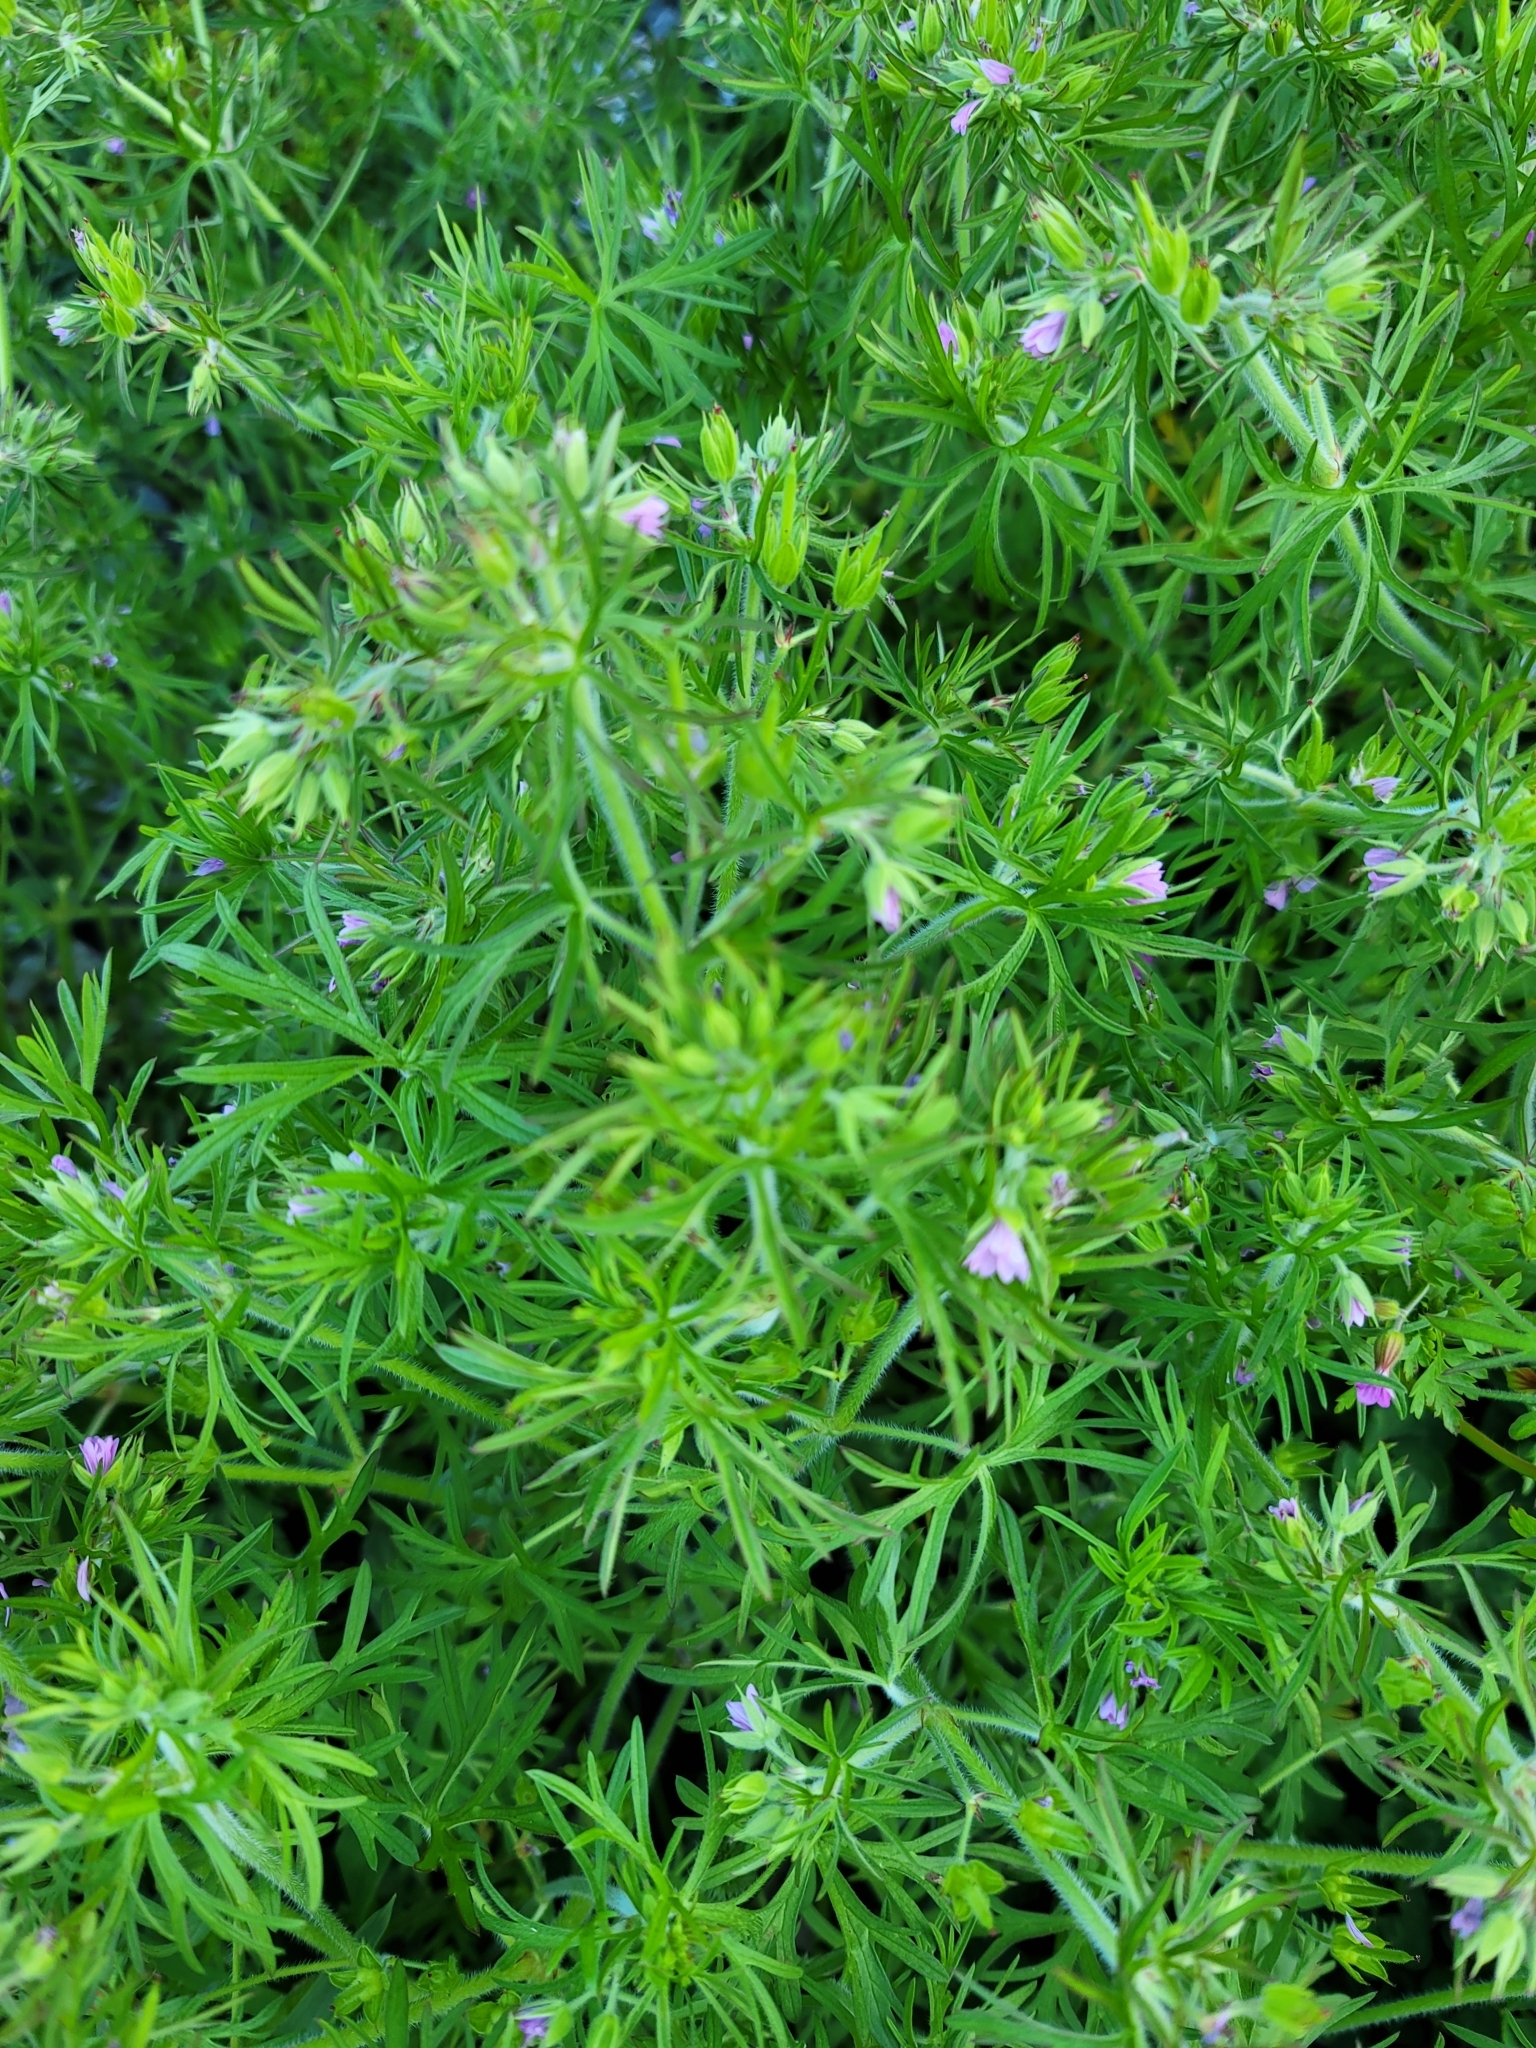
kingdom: Plantae
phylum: Tracheophyta
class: Magnoliopsida
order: Geraniales
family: Geraniaceae
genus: Geranium
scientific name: Geranium dissectum
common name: Cut-leaved crane's-bill
